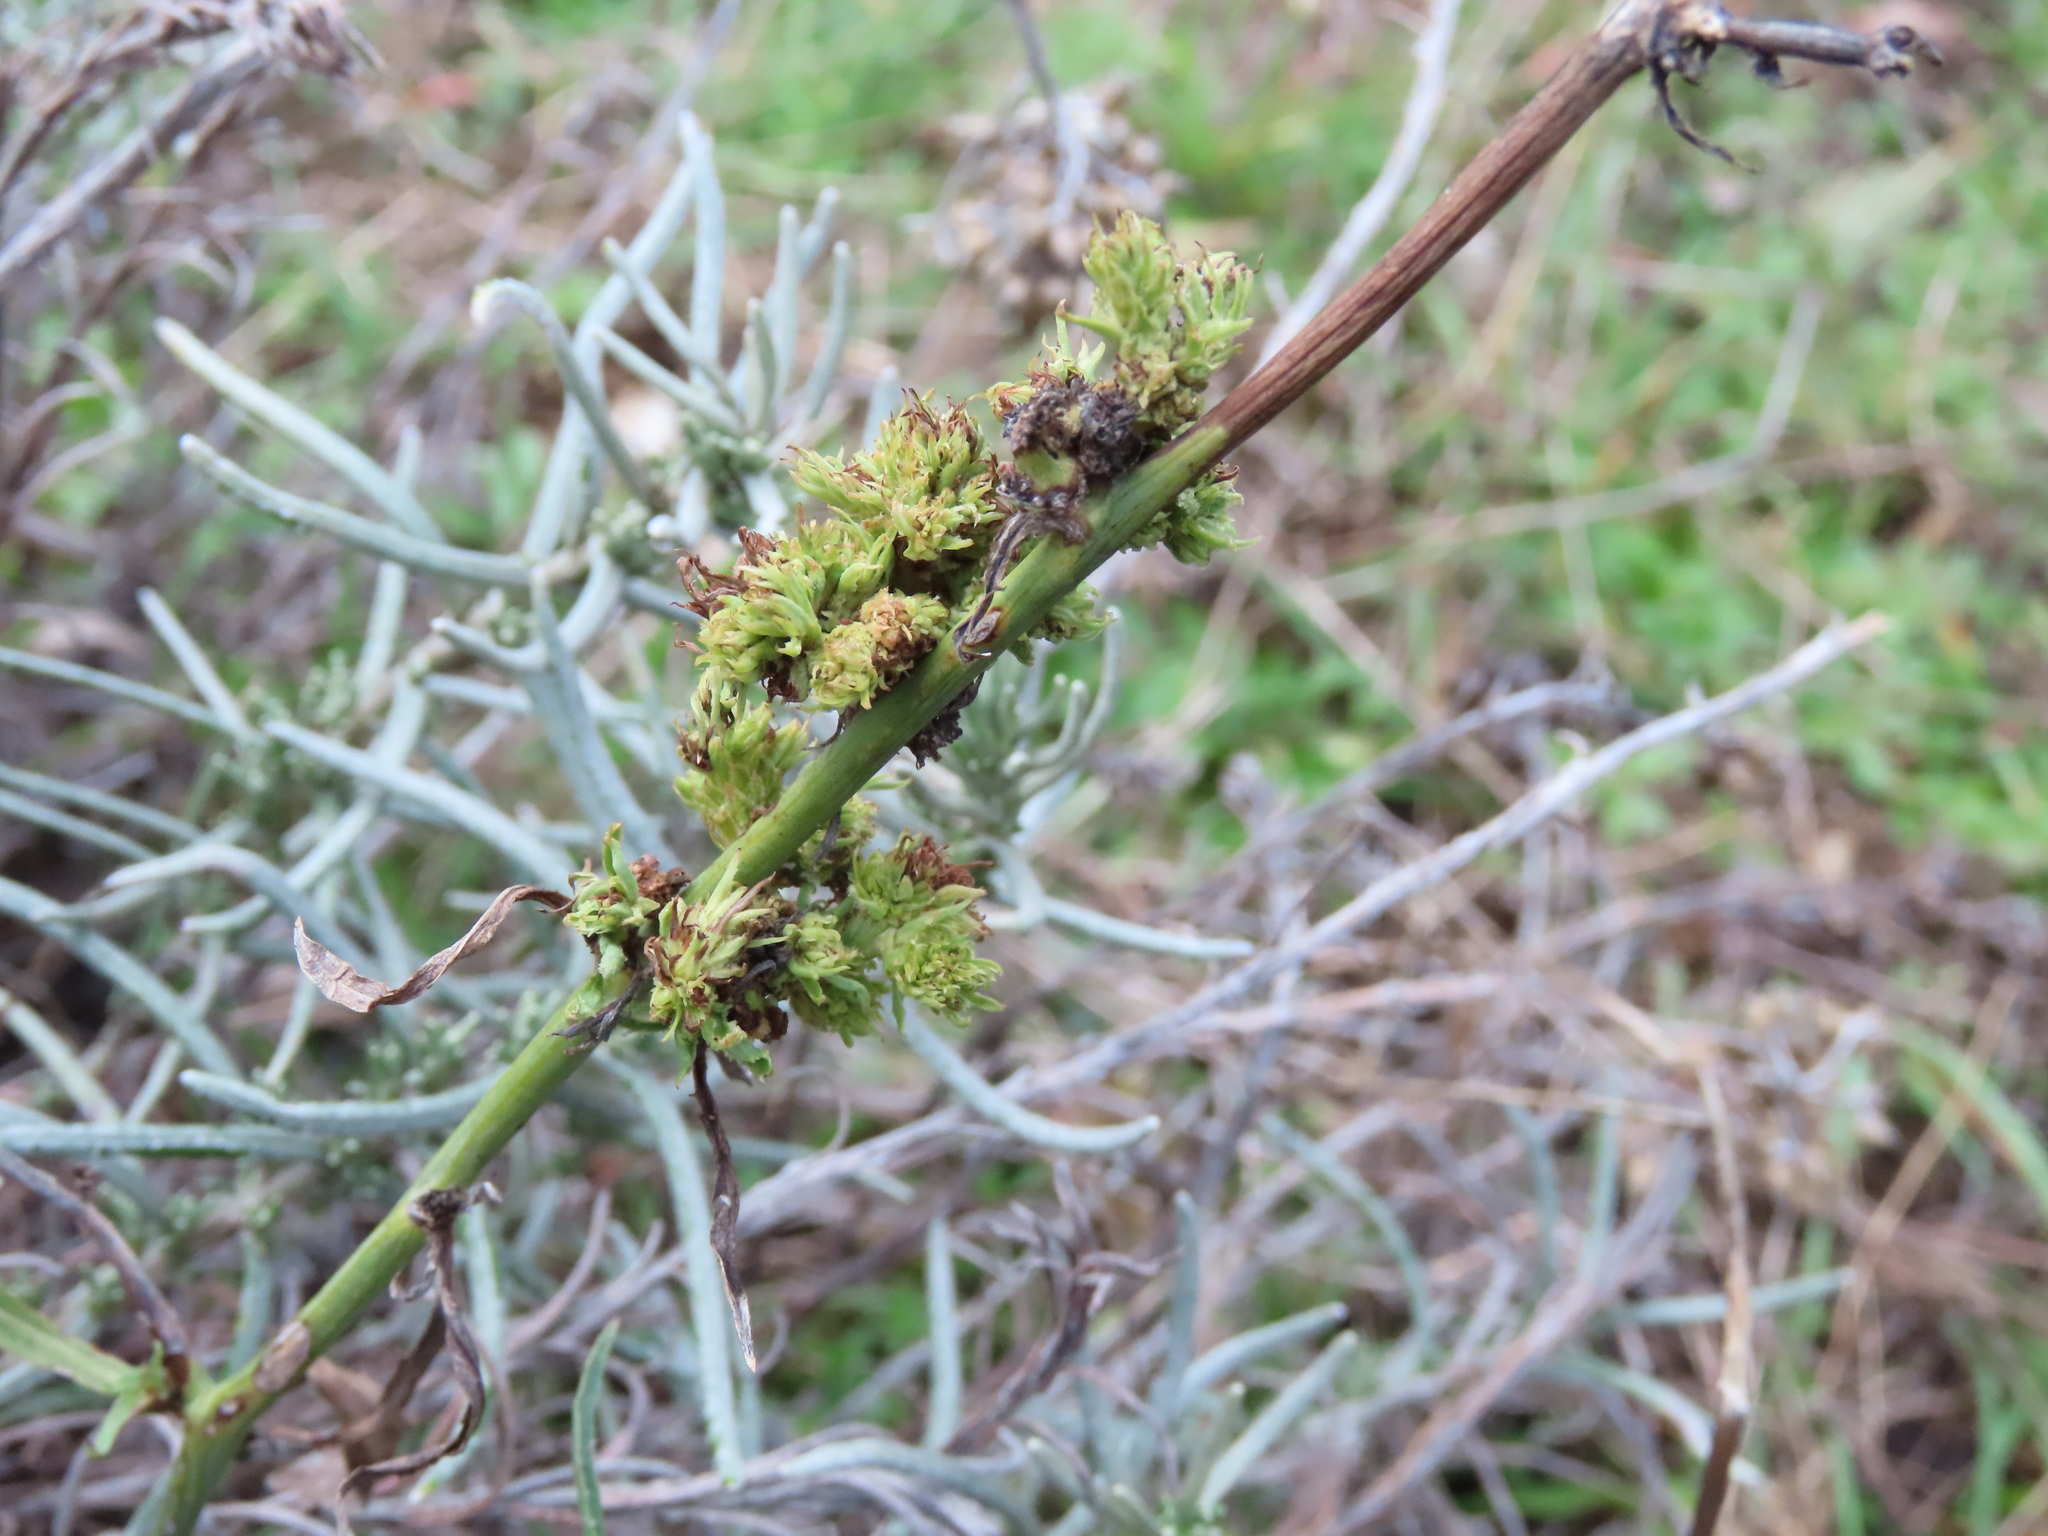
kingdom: Animalia
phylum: Arthropoda
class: Arachnida
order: Trombidiformes
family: Eriophyidae
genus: Aceria
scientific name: Aceria chondrillae
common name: Rush skeletonweed gall mite
